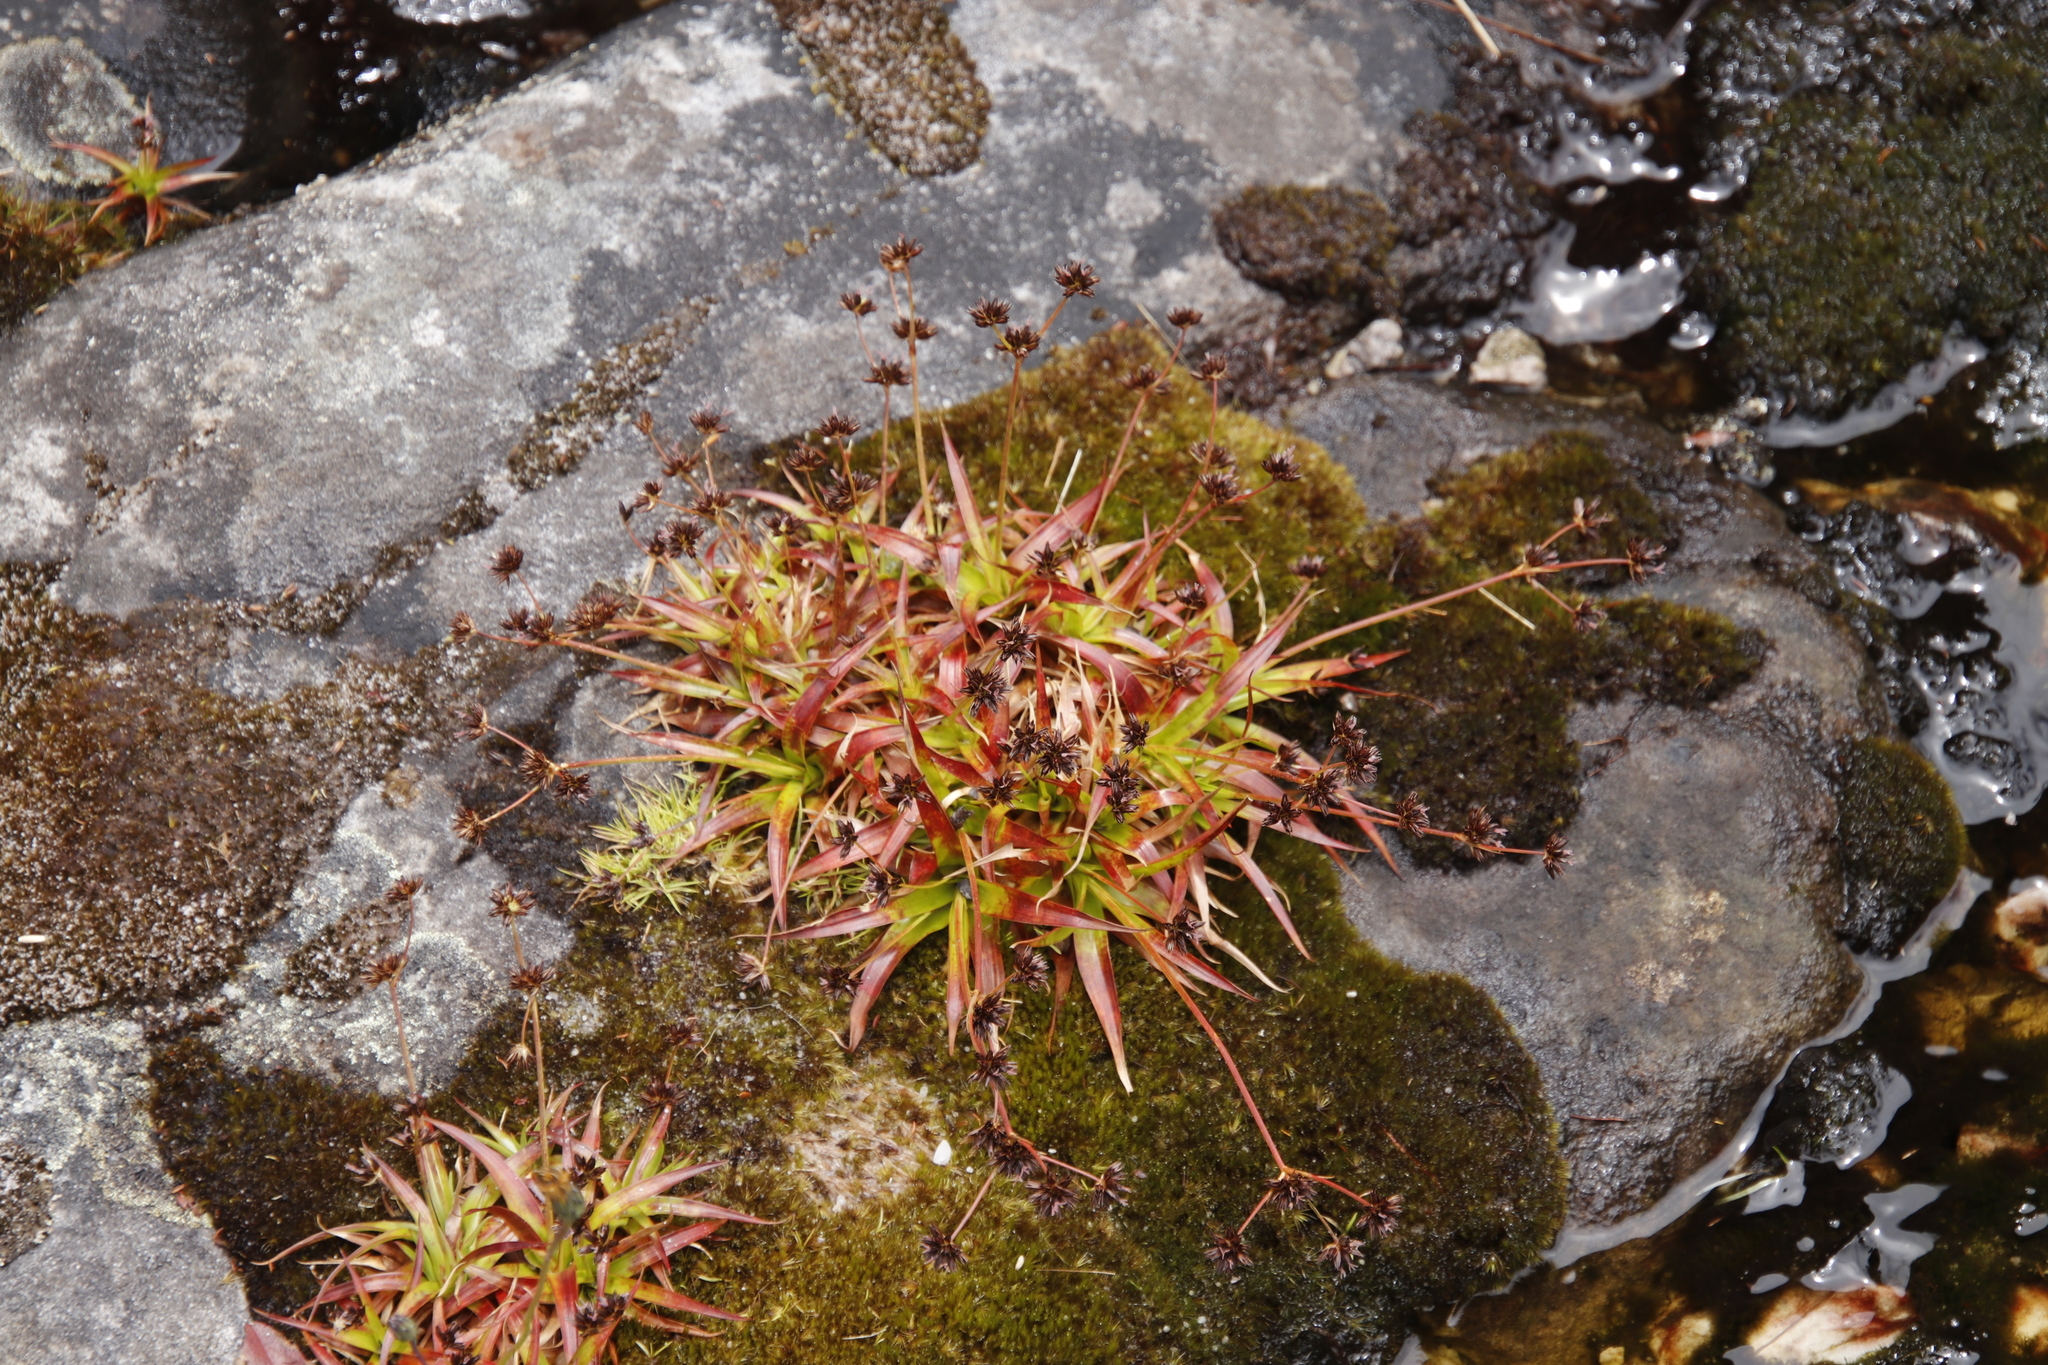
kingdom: Plantae
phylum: Tracheophyta
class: Liliopsida
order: Poales
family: Juncaceae
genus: Juncus
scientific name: Juncus lomatophyllus
